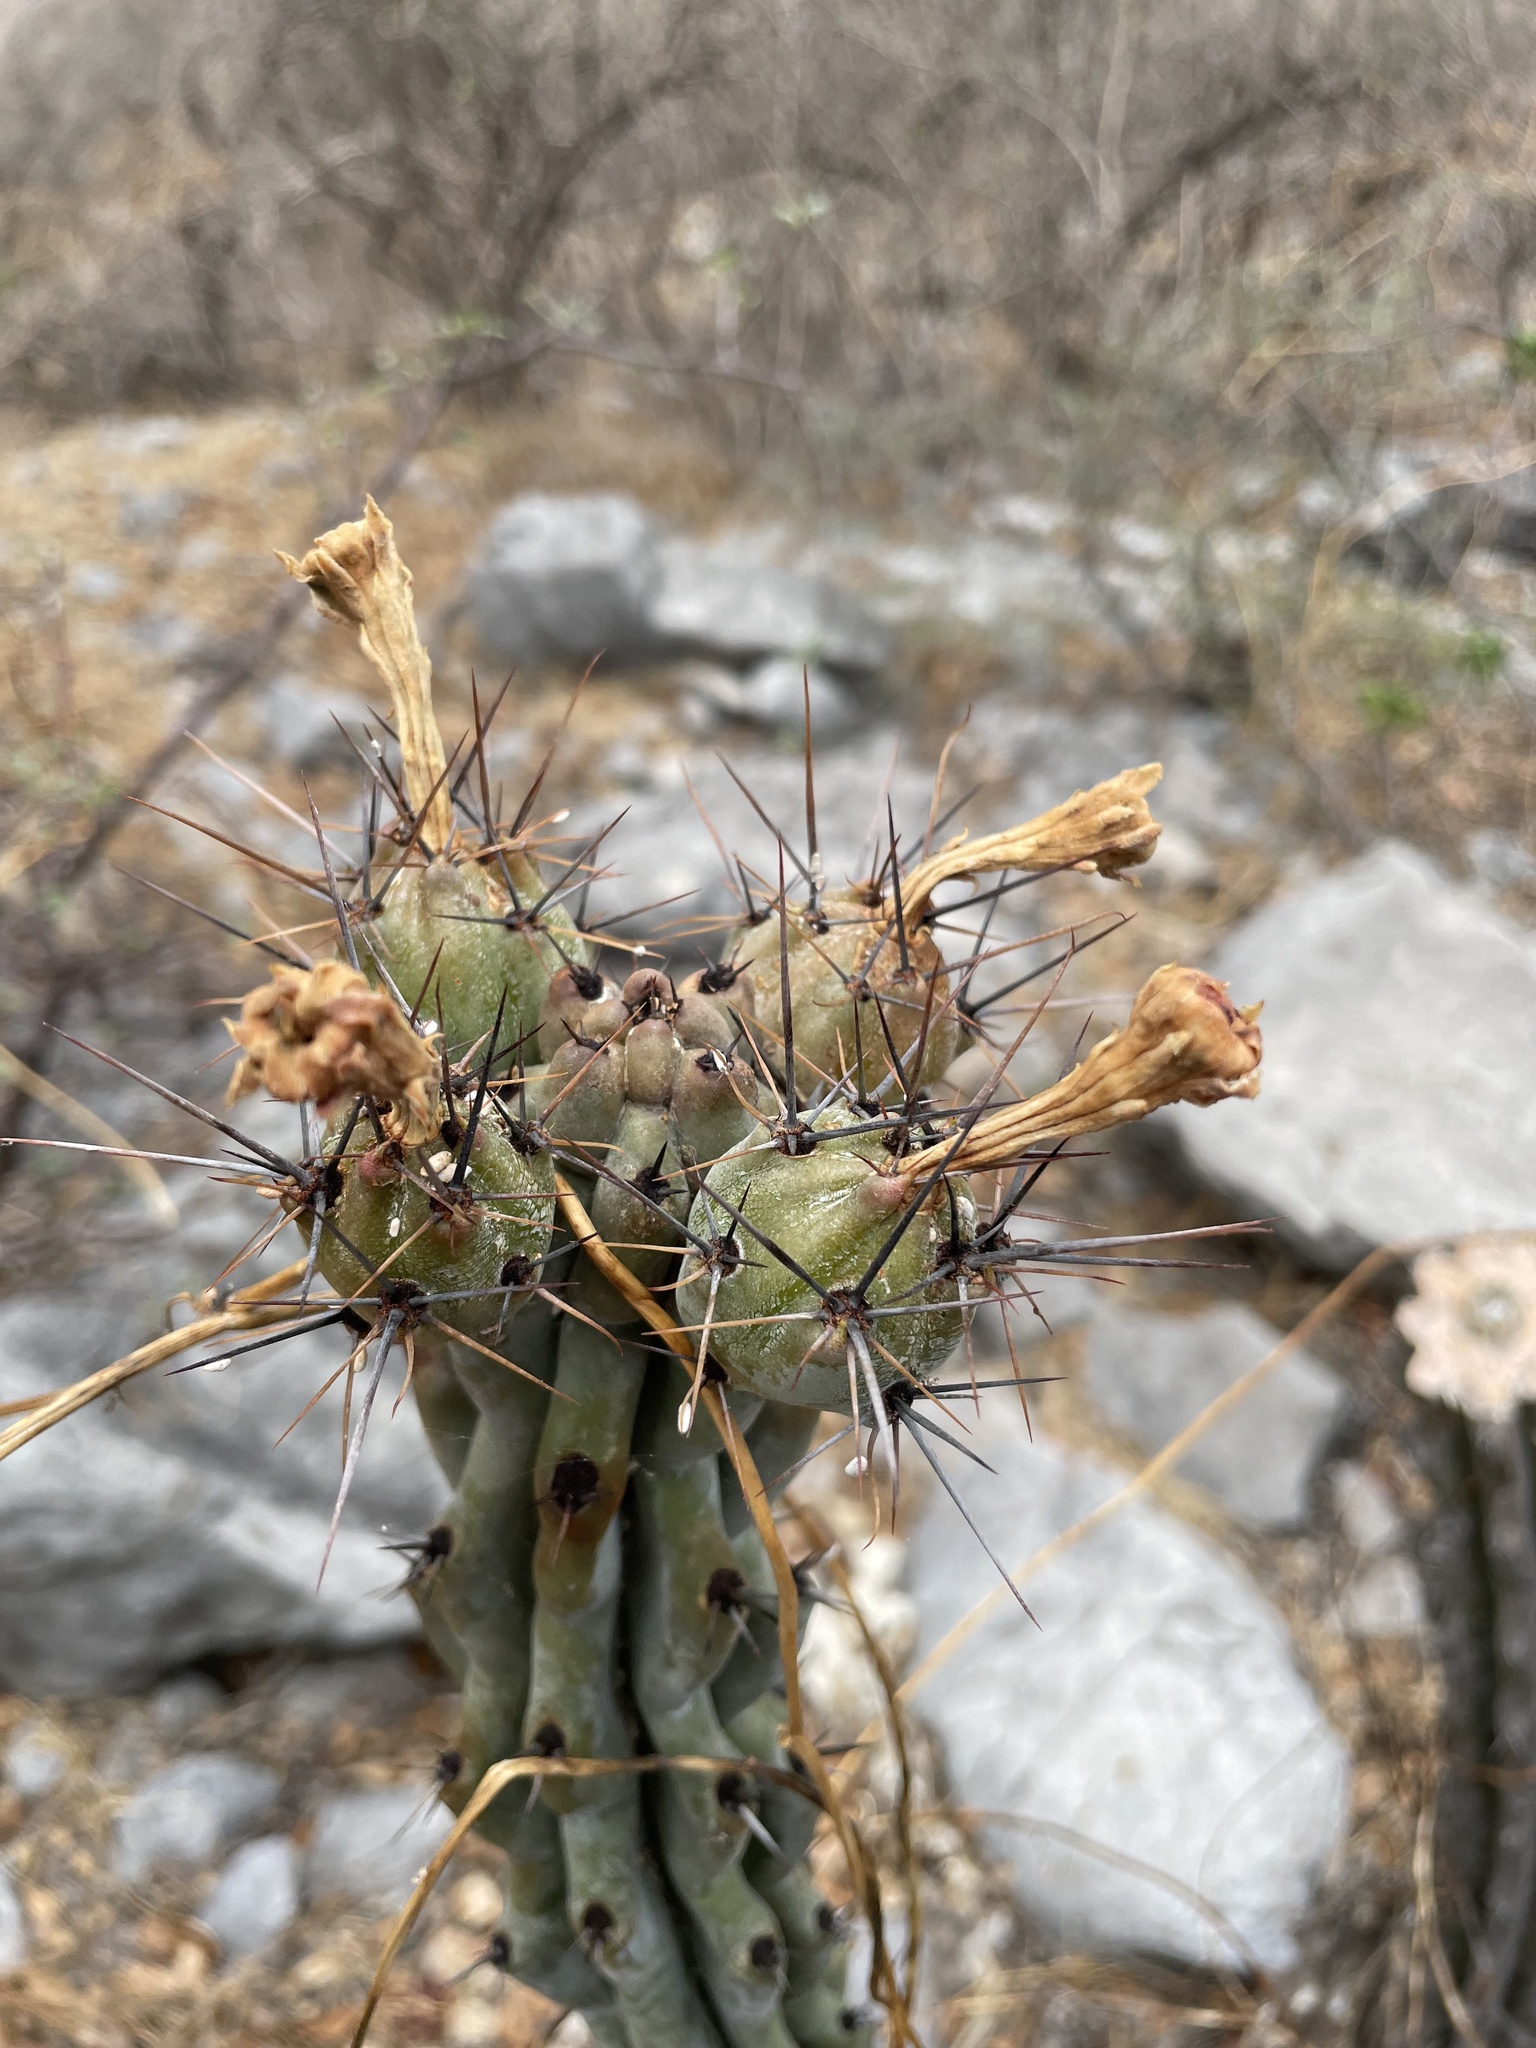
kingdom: Plantae
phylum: Tracheophyta
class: Magnoliopsida
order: Caryophyllales
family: Cactaceae
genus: Stenocereus
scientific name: Stenocereus beneckei
